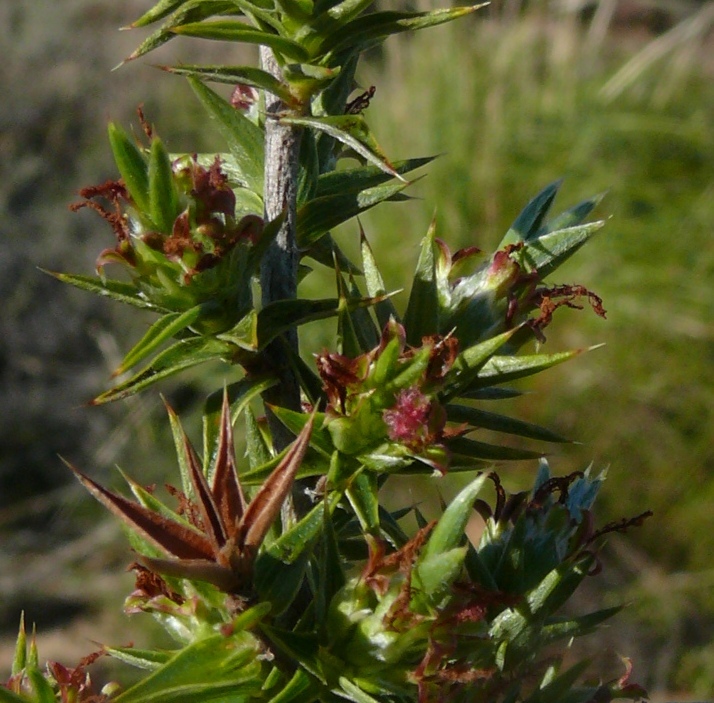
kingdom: Plantae
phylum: Tracheophyta
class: Magnoliopsida
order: Rosales
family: Rosaceae
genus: Cliffortia
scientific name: Cliffortia ruscifolia
